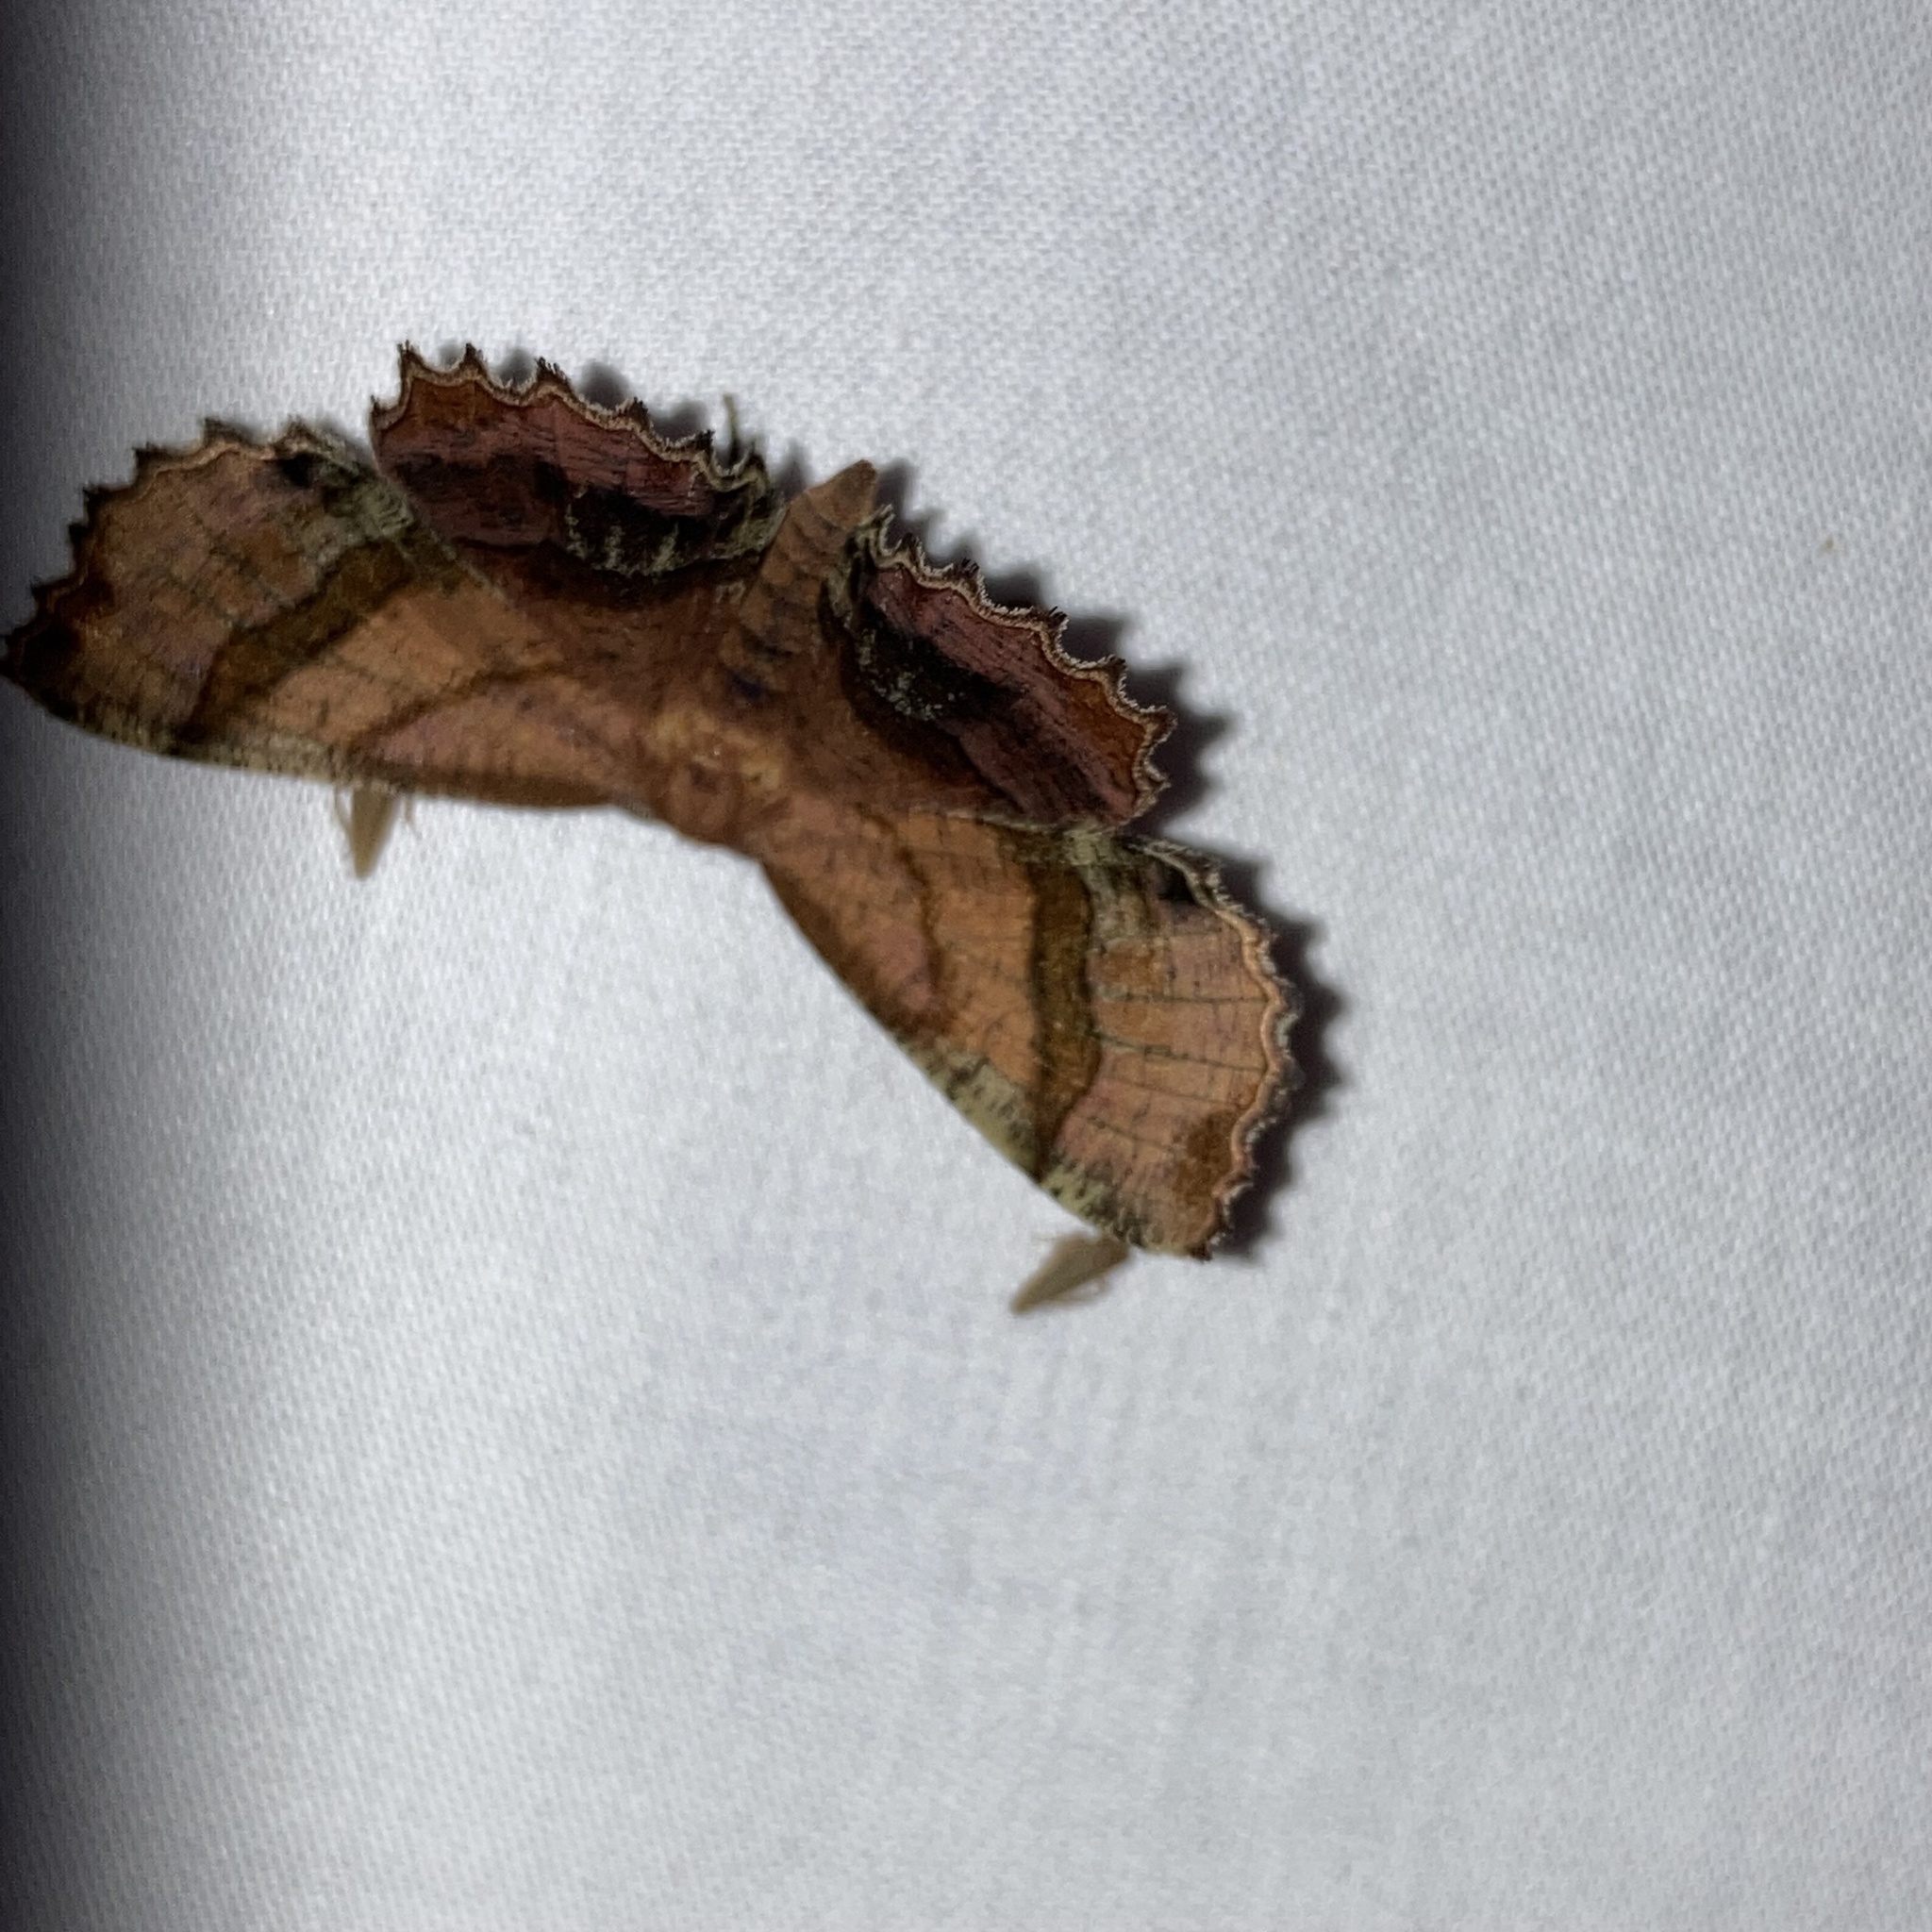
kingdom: Animalia
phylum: Arthropoda
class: Insecta
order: Lepidoptera
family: Geometridae
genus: Cepphis
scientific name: Cepphis armataria
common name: Scallop moth
